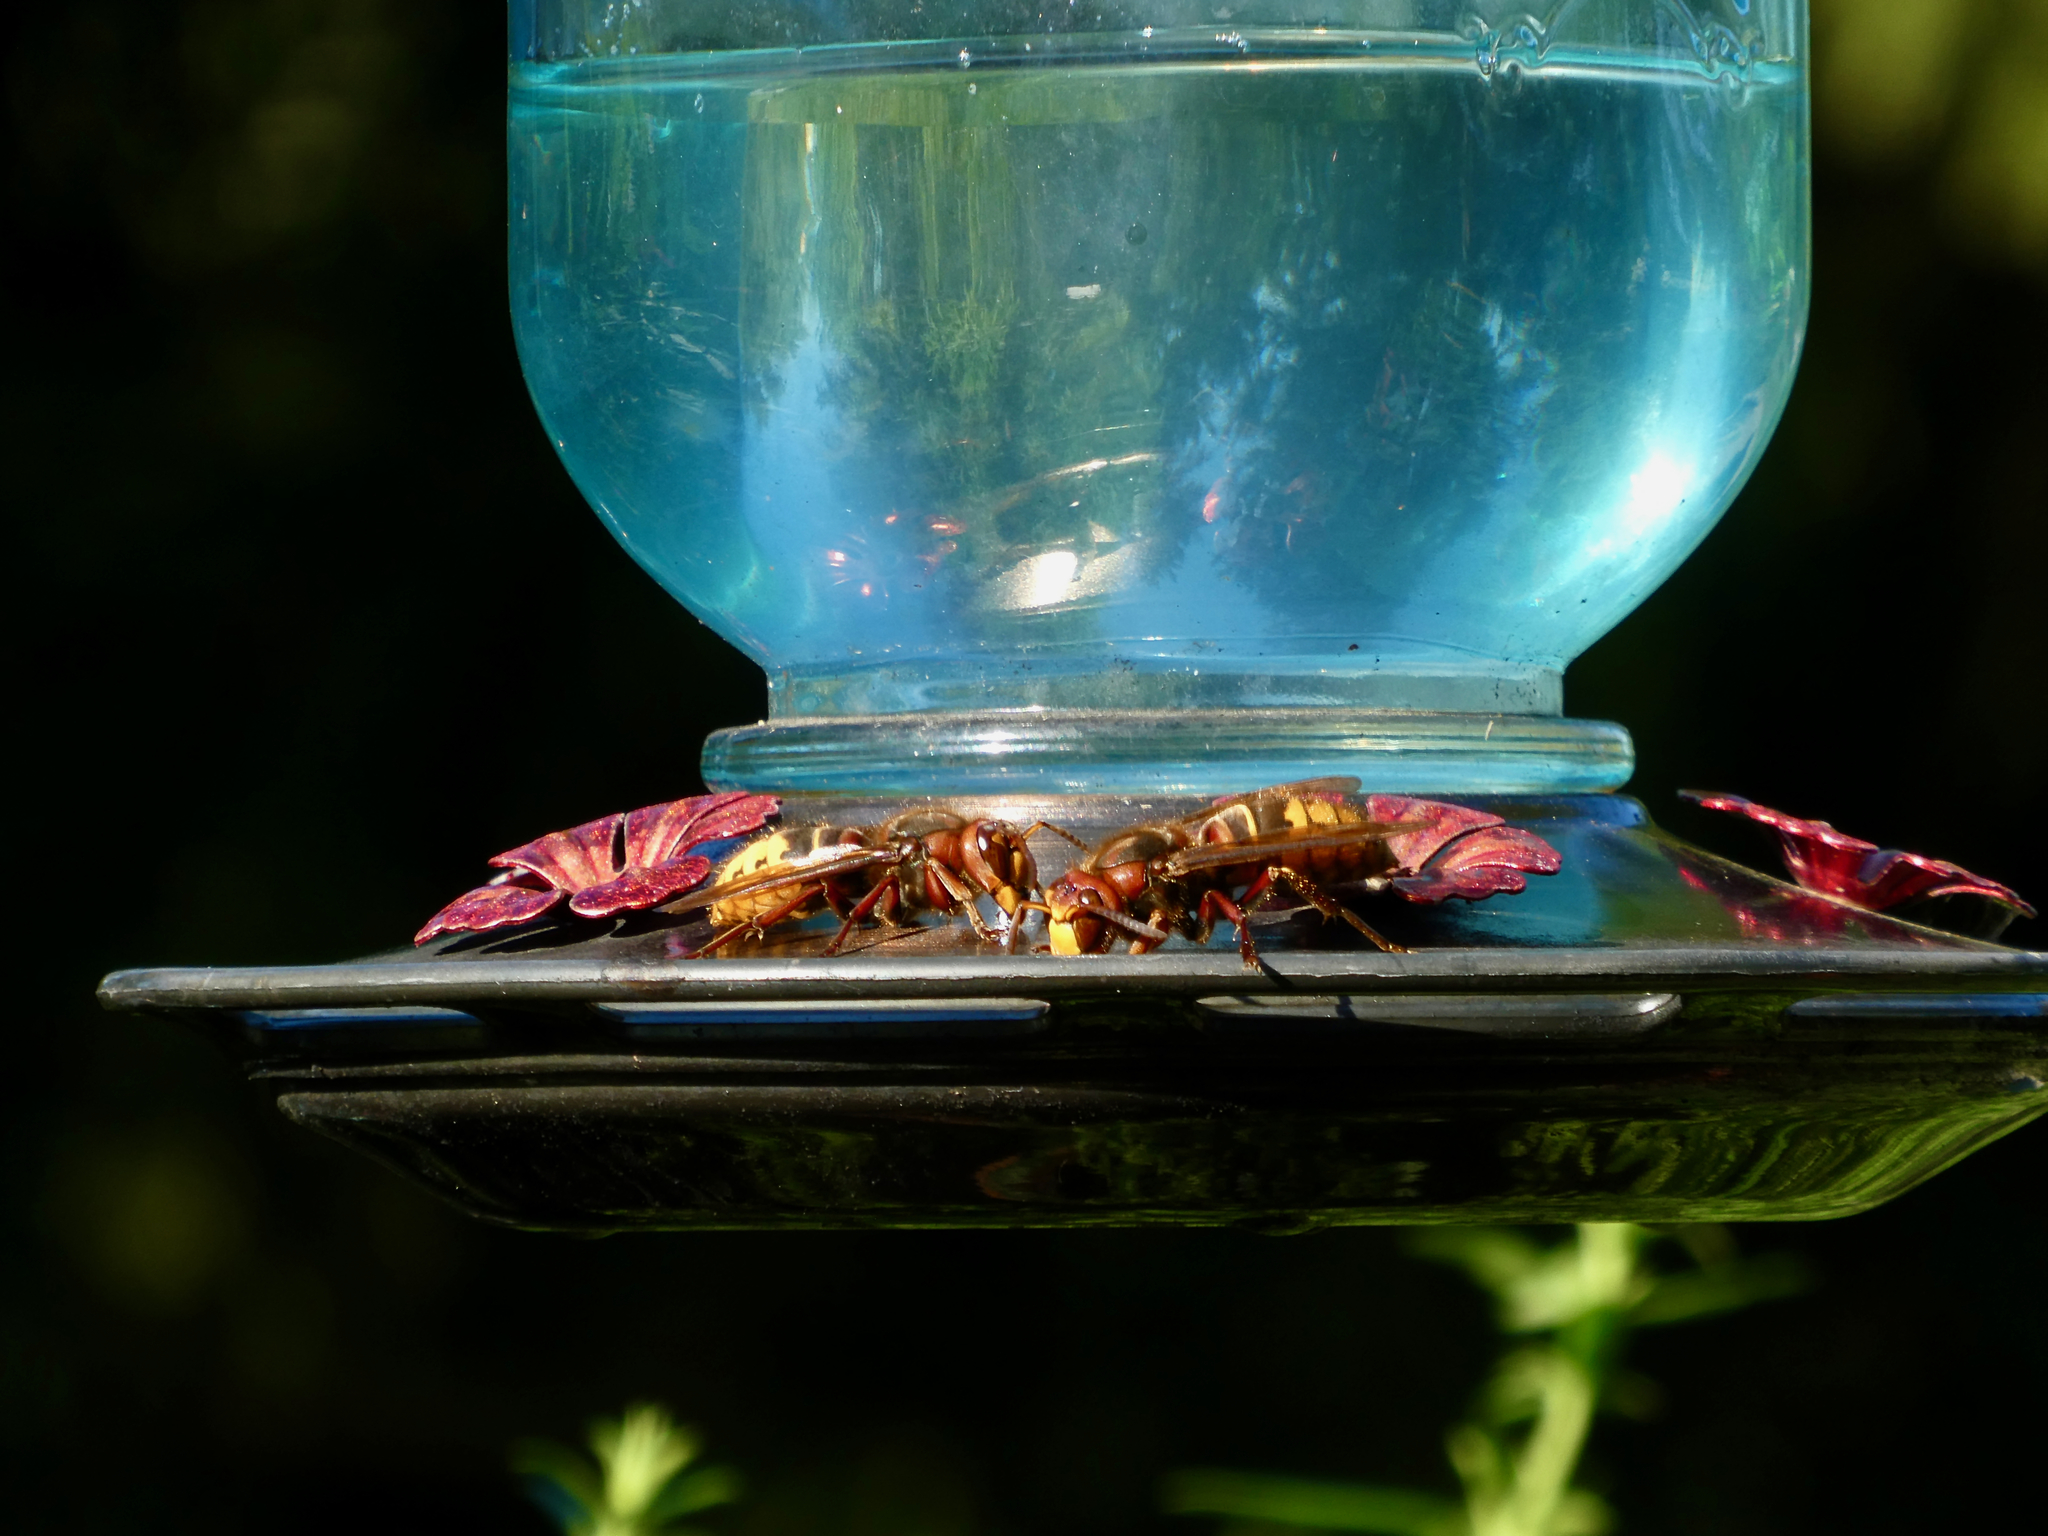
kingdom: Animalia
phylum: Arthropoda
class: Insecta
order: Hymenoptera
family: Vespidae
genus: Vespa
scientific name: Vespa crabro
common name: Hornet
